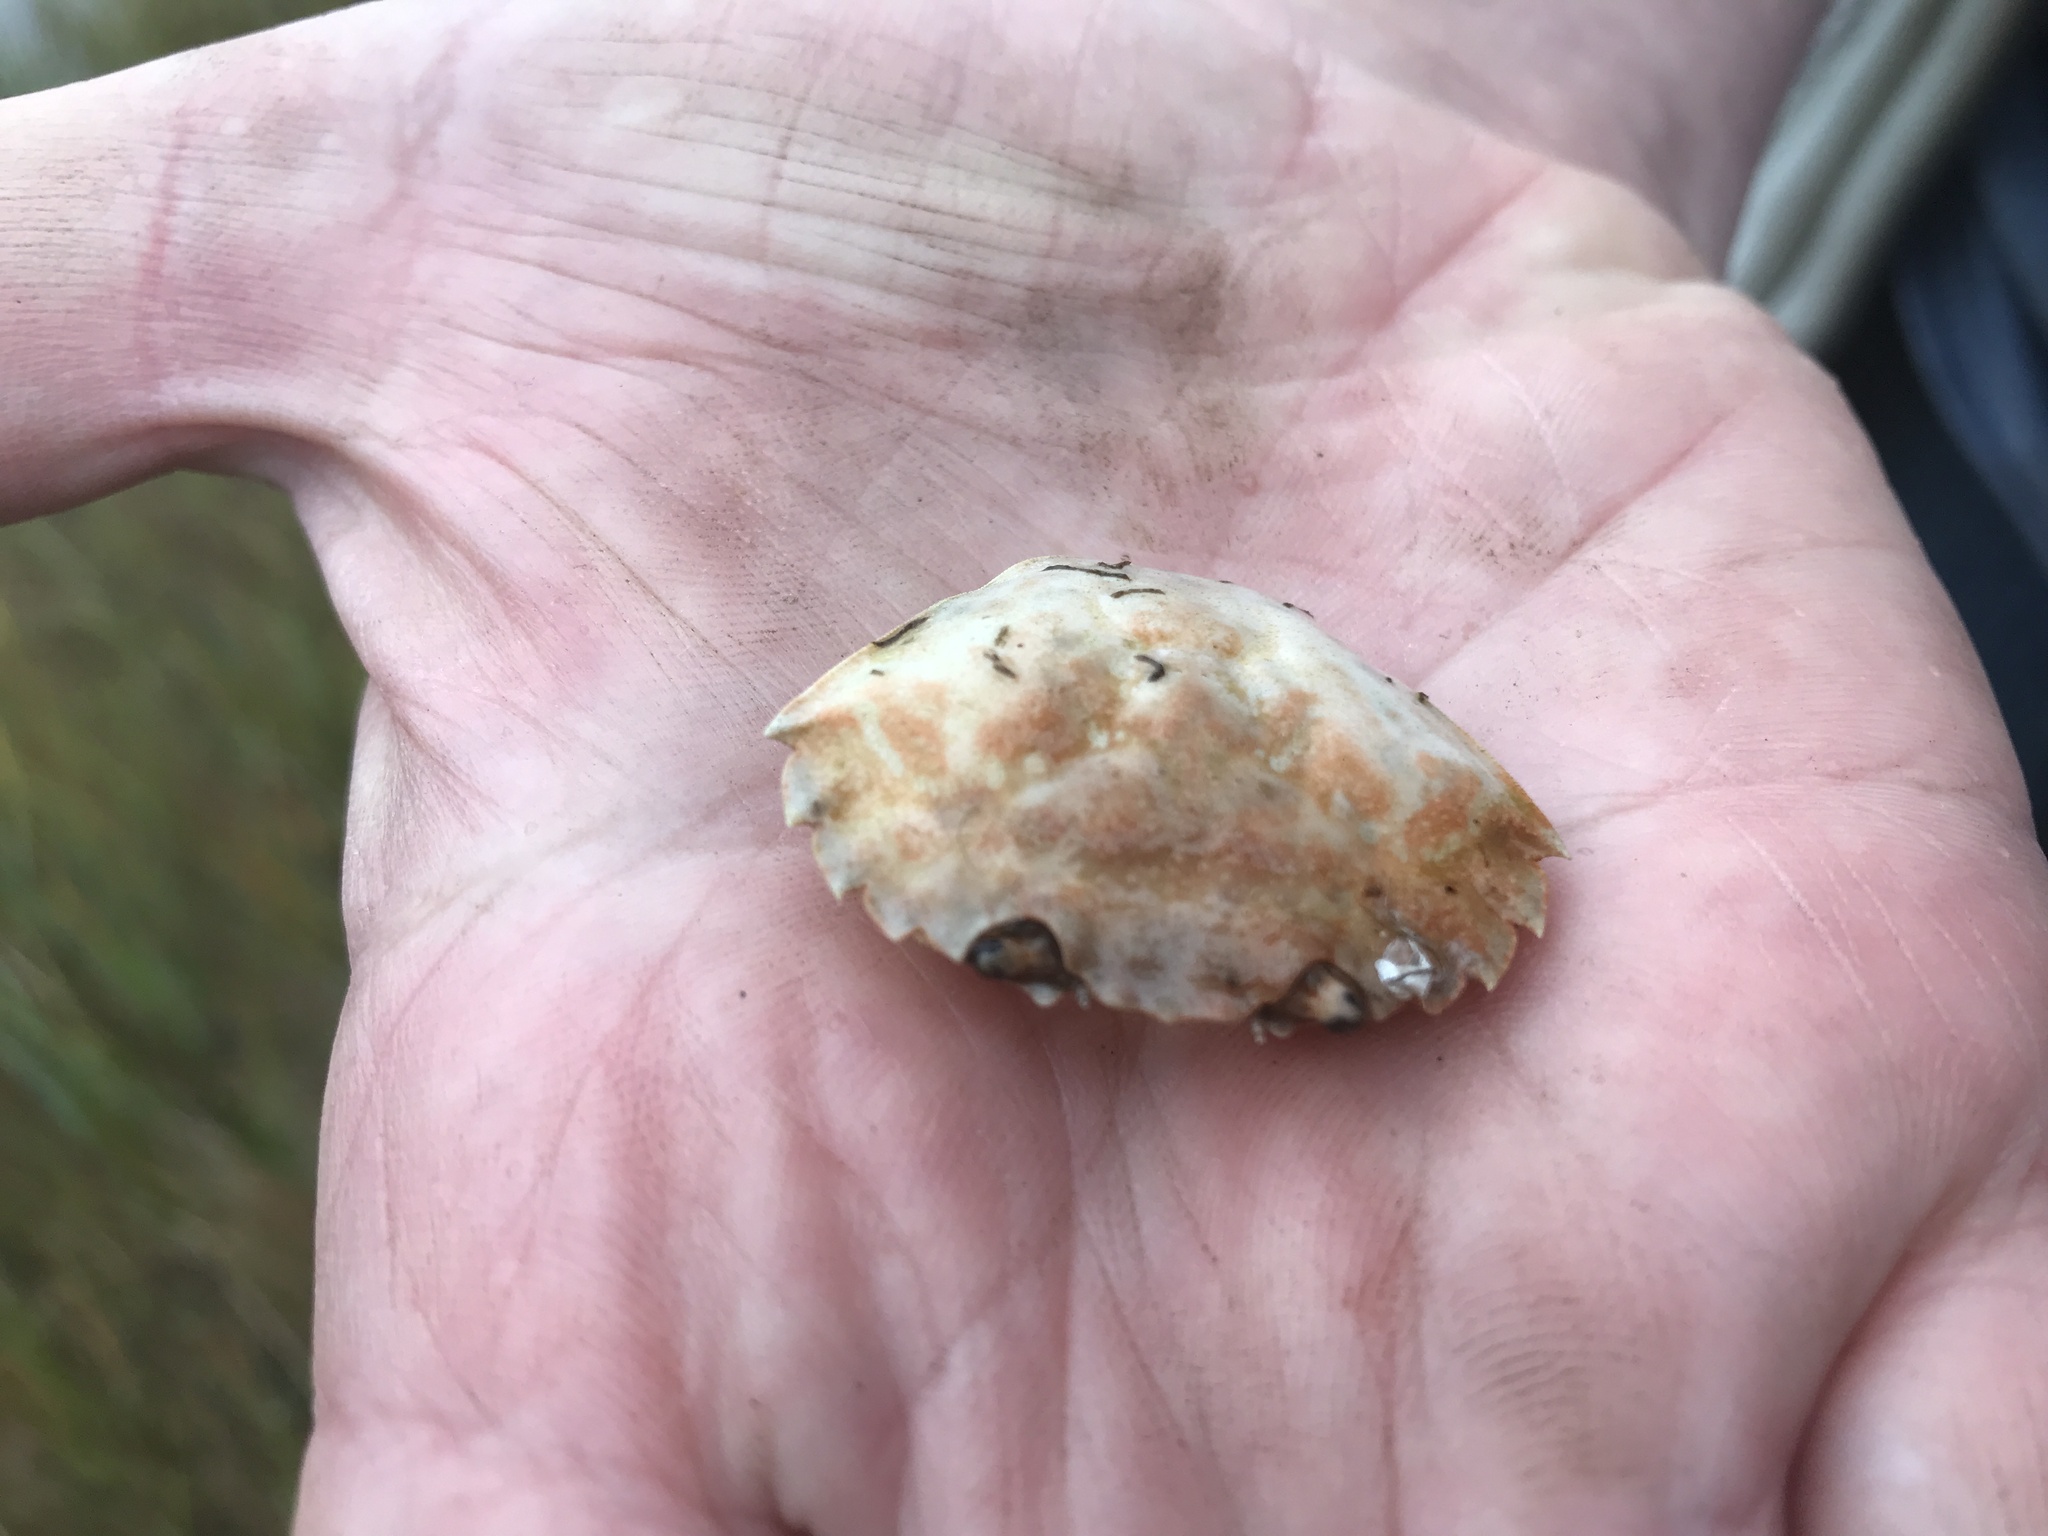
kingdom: Animalia
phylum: Arthropoda
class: Malacostraca
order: Decapoda
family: Carcinidae
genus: Carcinus
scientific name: Carcinus maenas
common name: European green crab
